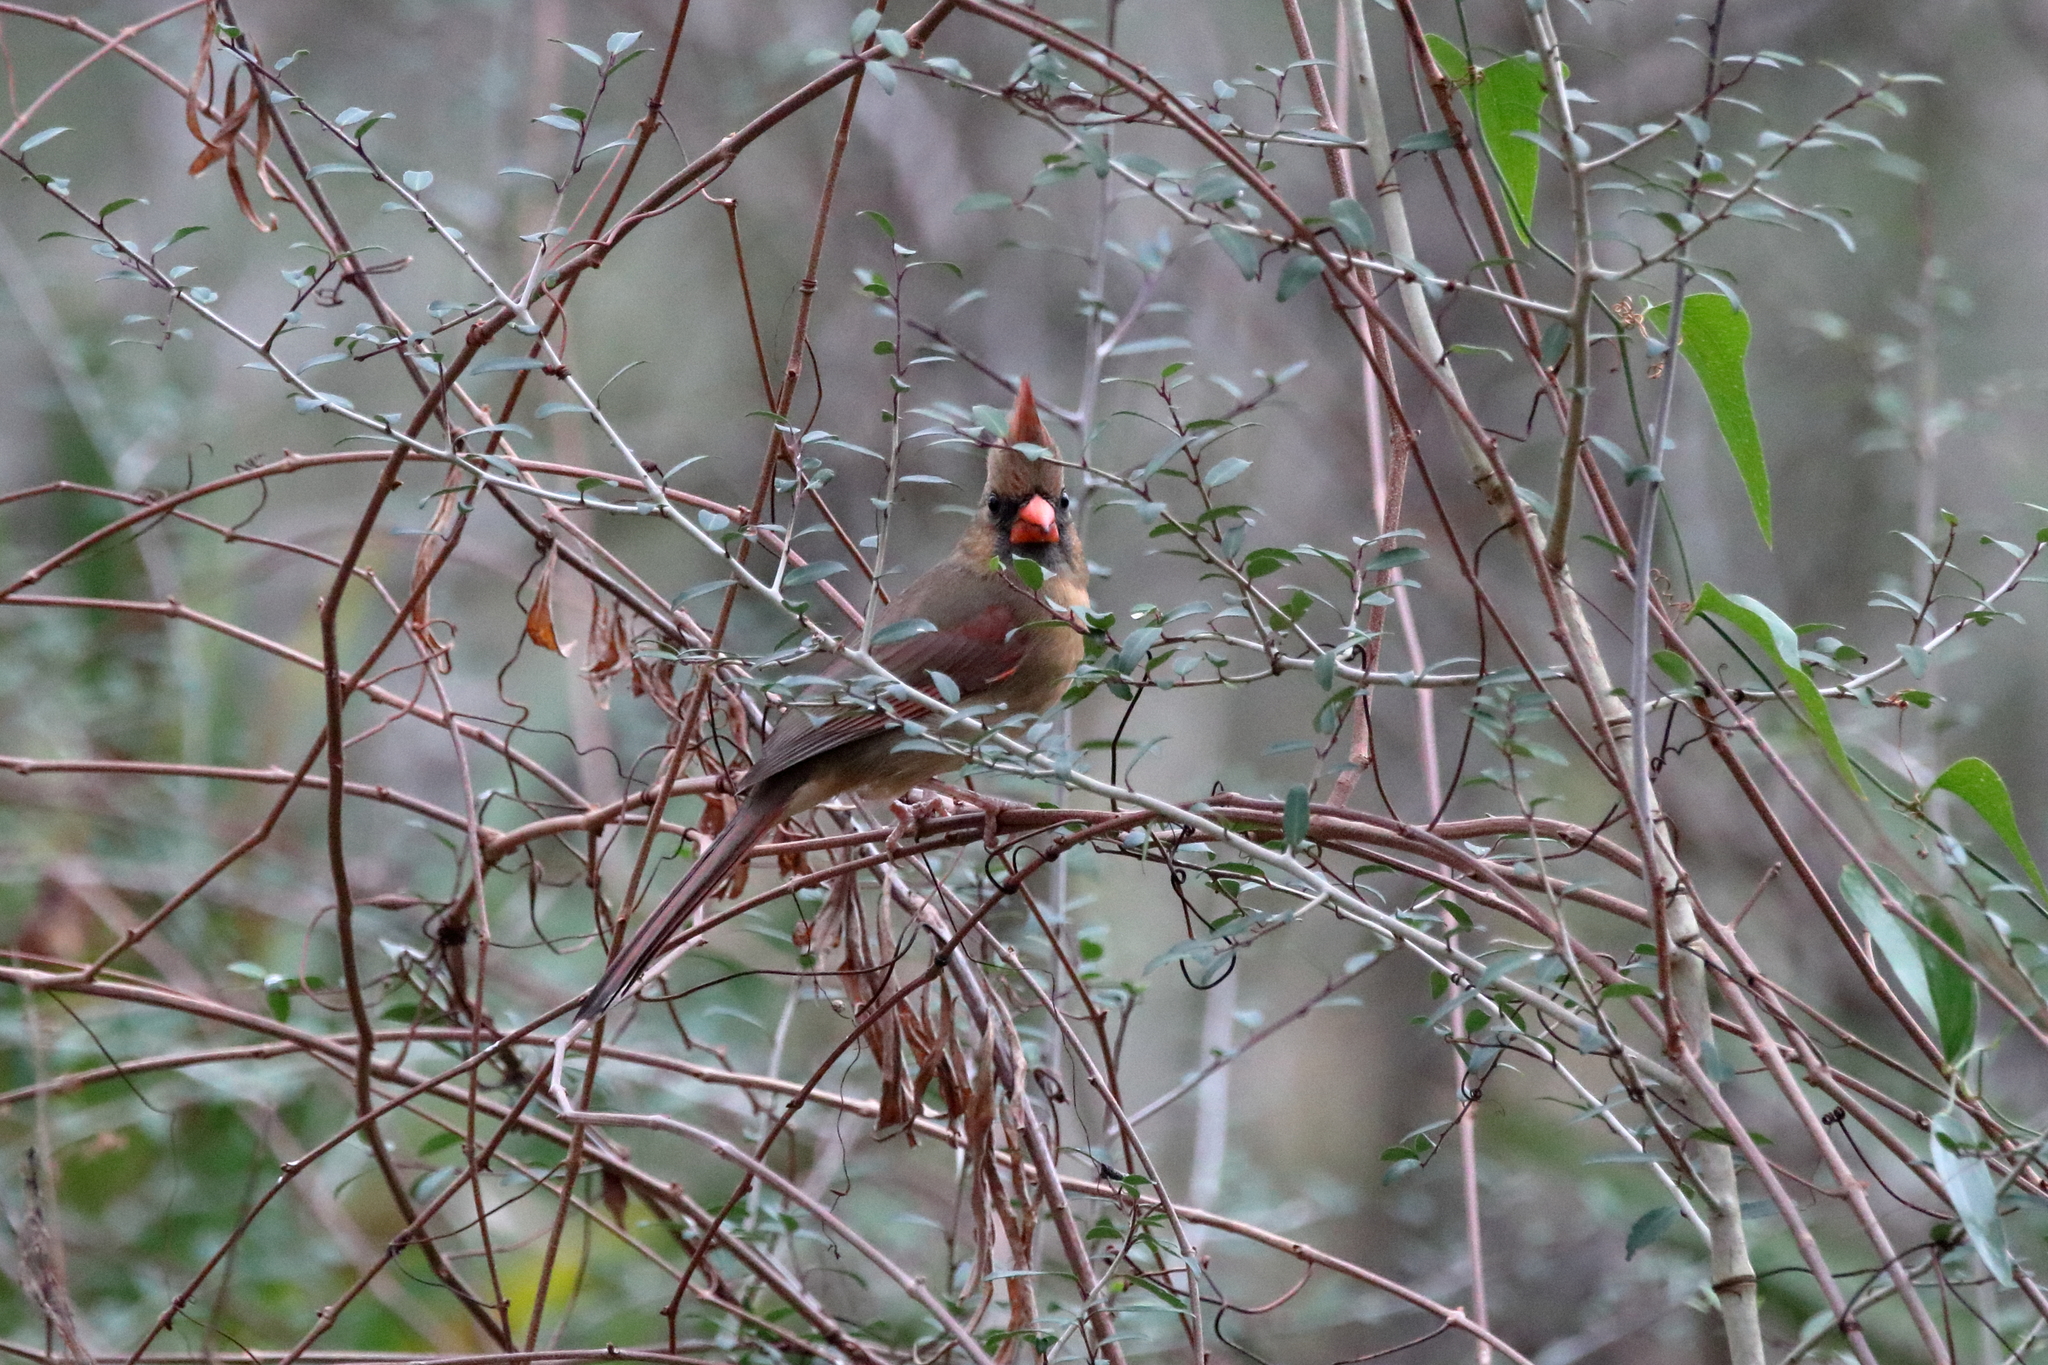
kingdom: Animalia
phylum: Chordata
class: Aves
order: Passeriformes
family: Cardinalidae
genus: Cardinalis
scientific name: Cardinalis cardinalis
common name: Northern cardinal
